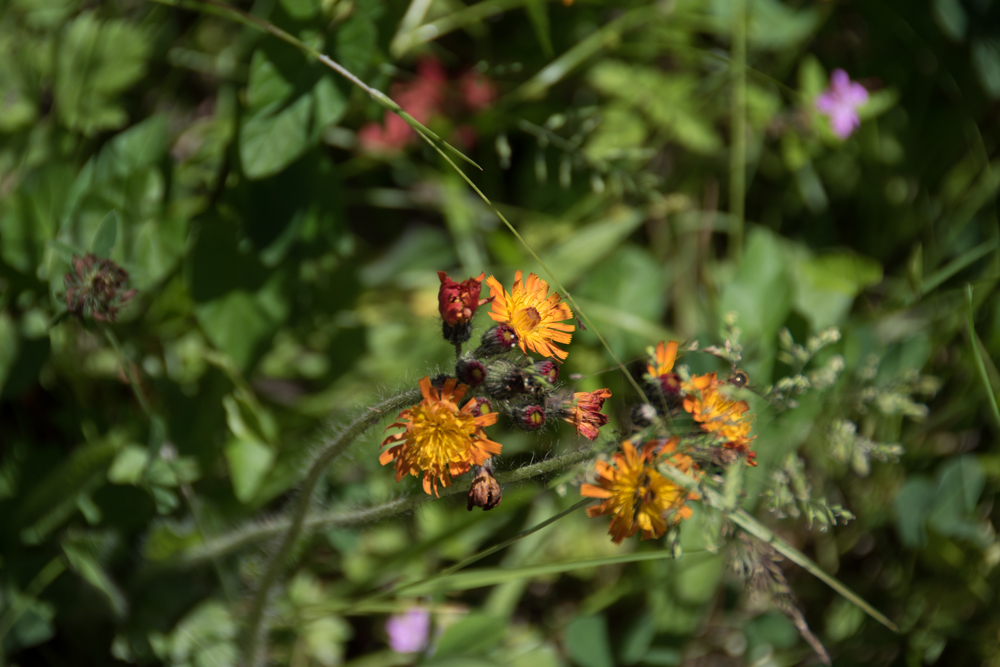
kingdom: Plantae
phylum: Tracheophyta
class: Magnoliopsida
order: Asterales
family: Asteraceae
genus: Pilosella
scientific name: Pilosella aurantiaca
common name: Fox-and-cubs
